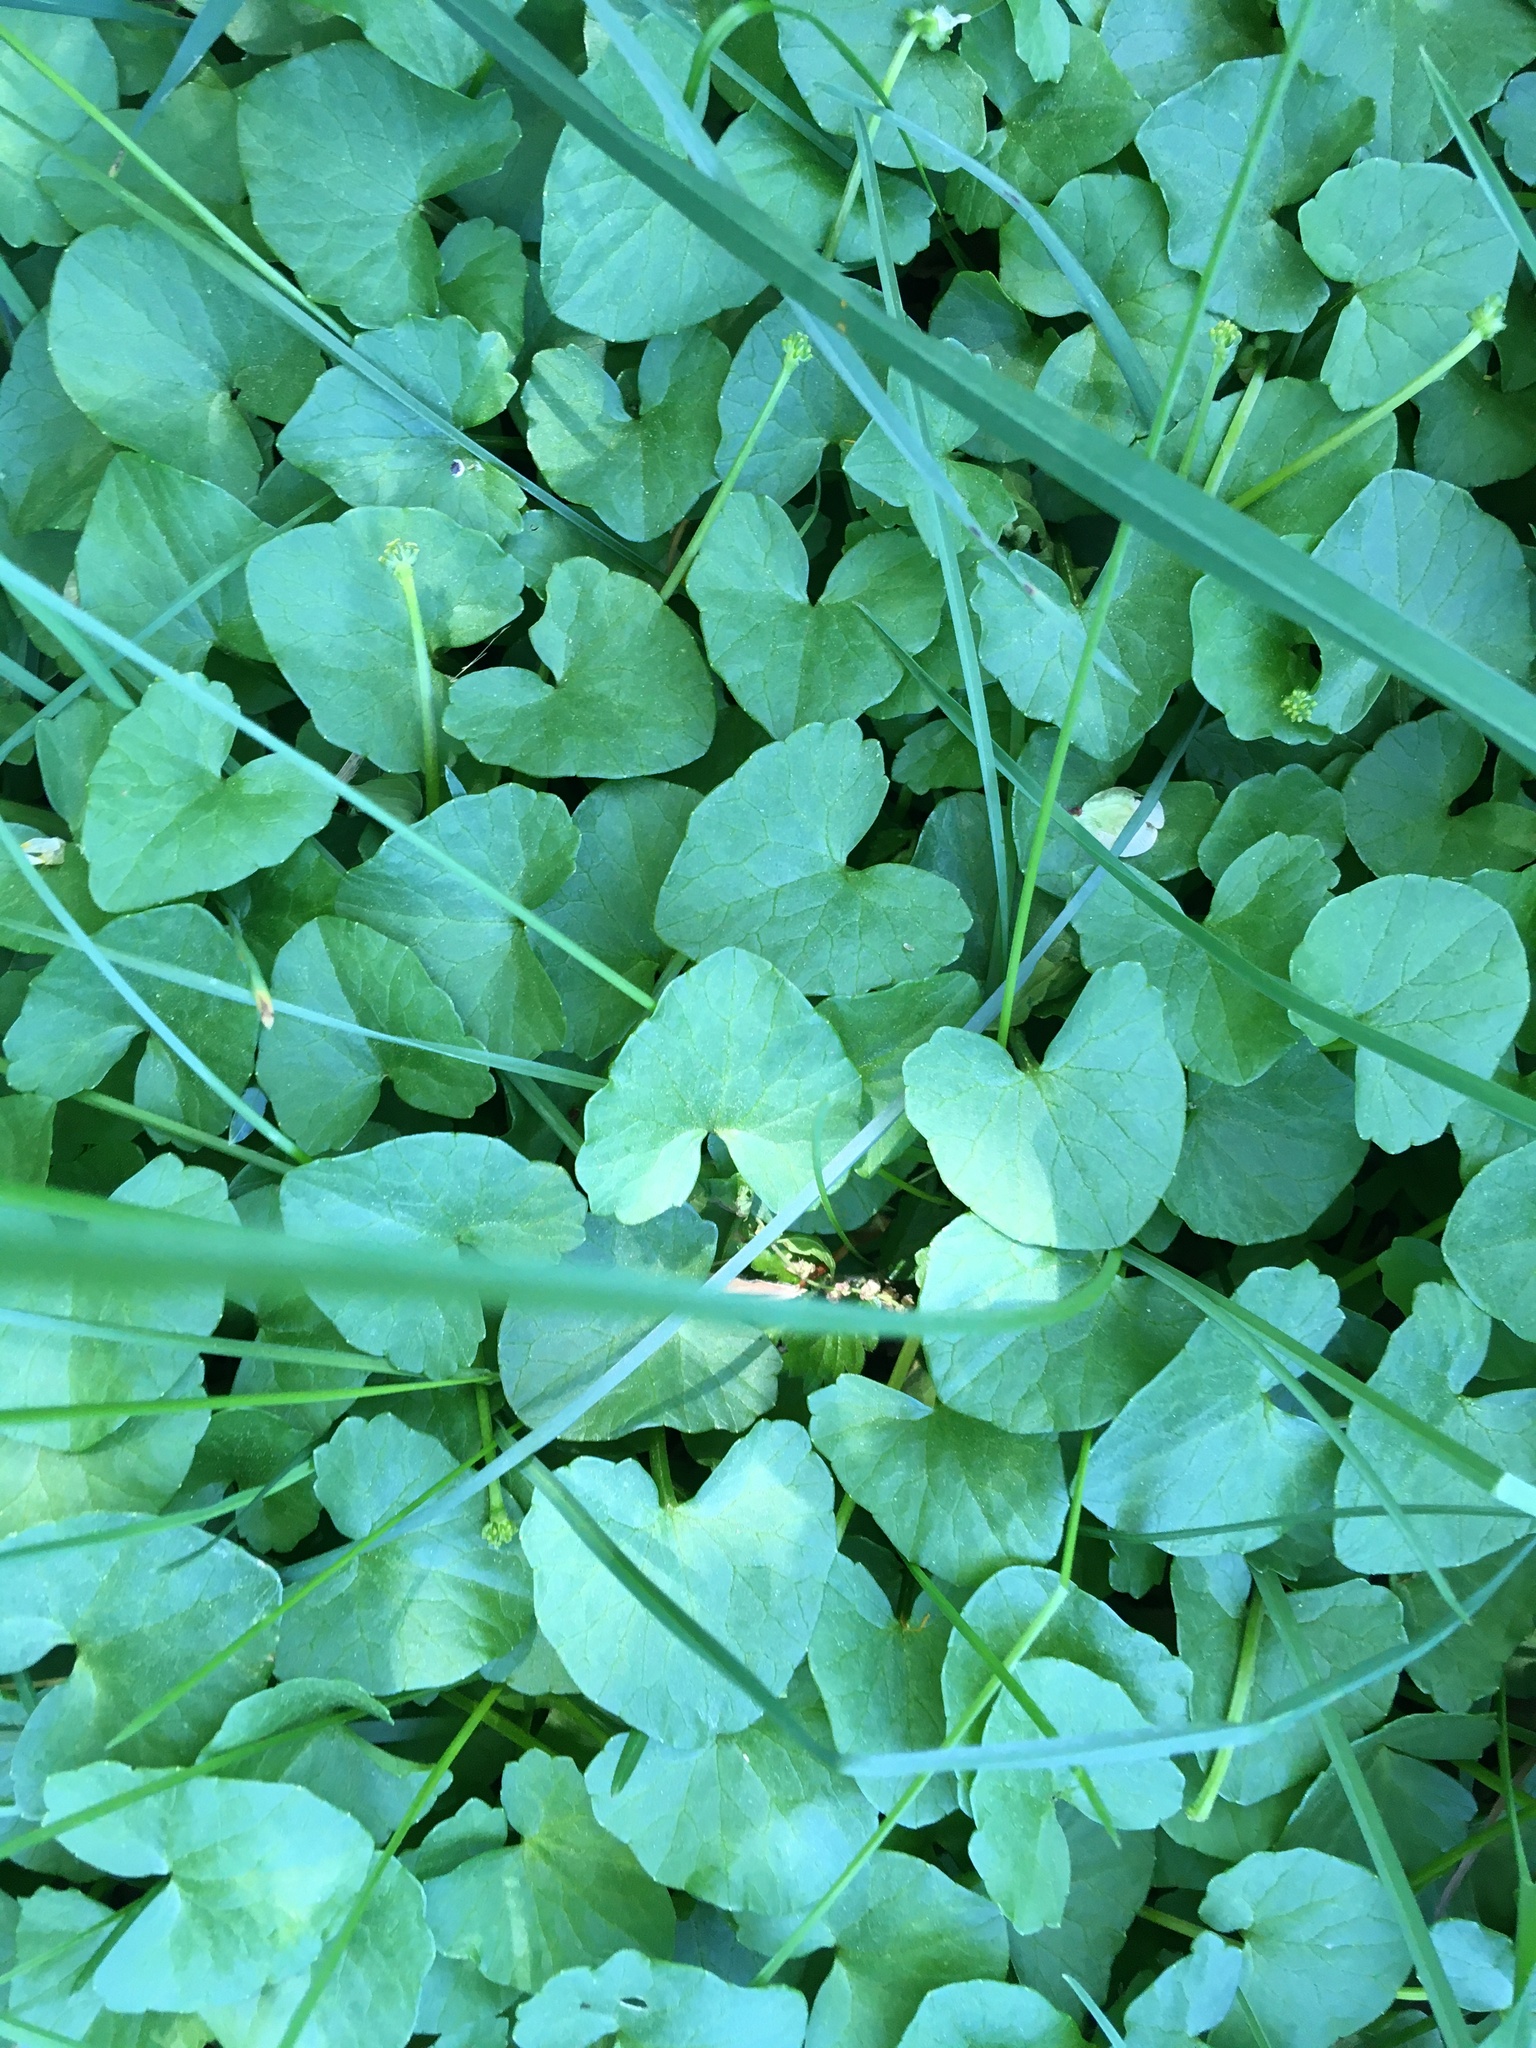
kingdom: Plantae
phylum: Tracheophyta
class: Magnoliopsida
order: Ranunculales
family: Ranunculaceae
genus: Ficaria
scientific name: Ficaria verna
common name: Lesser celandine
